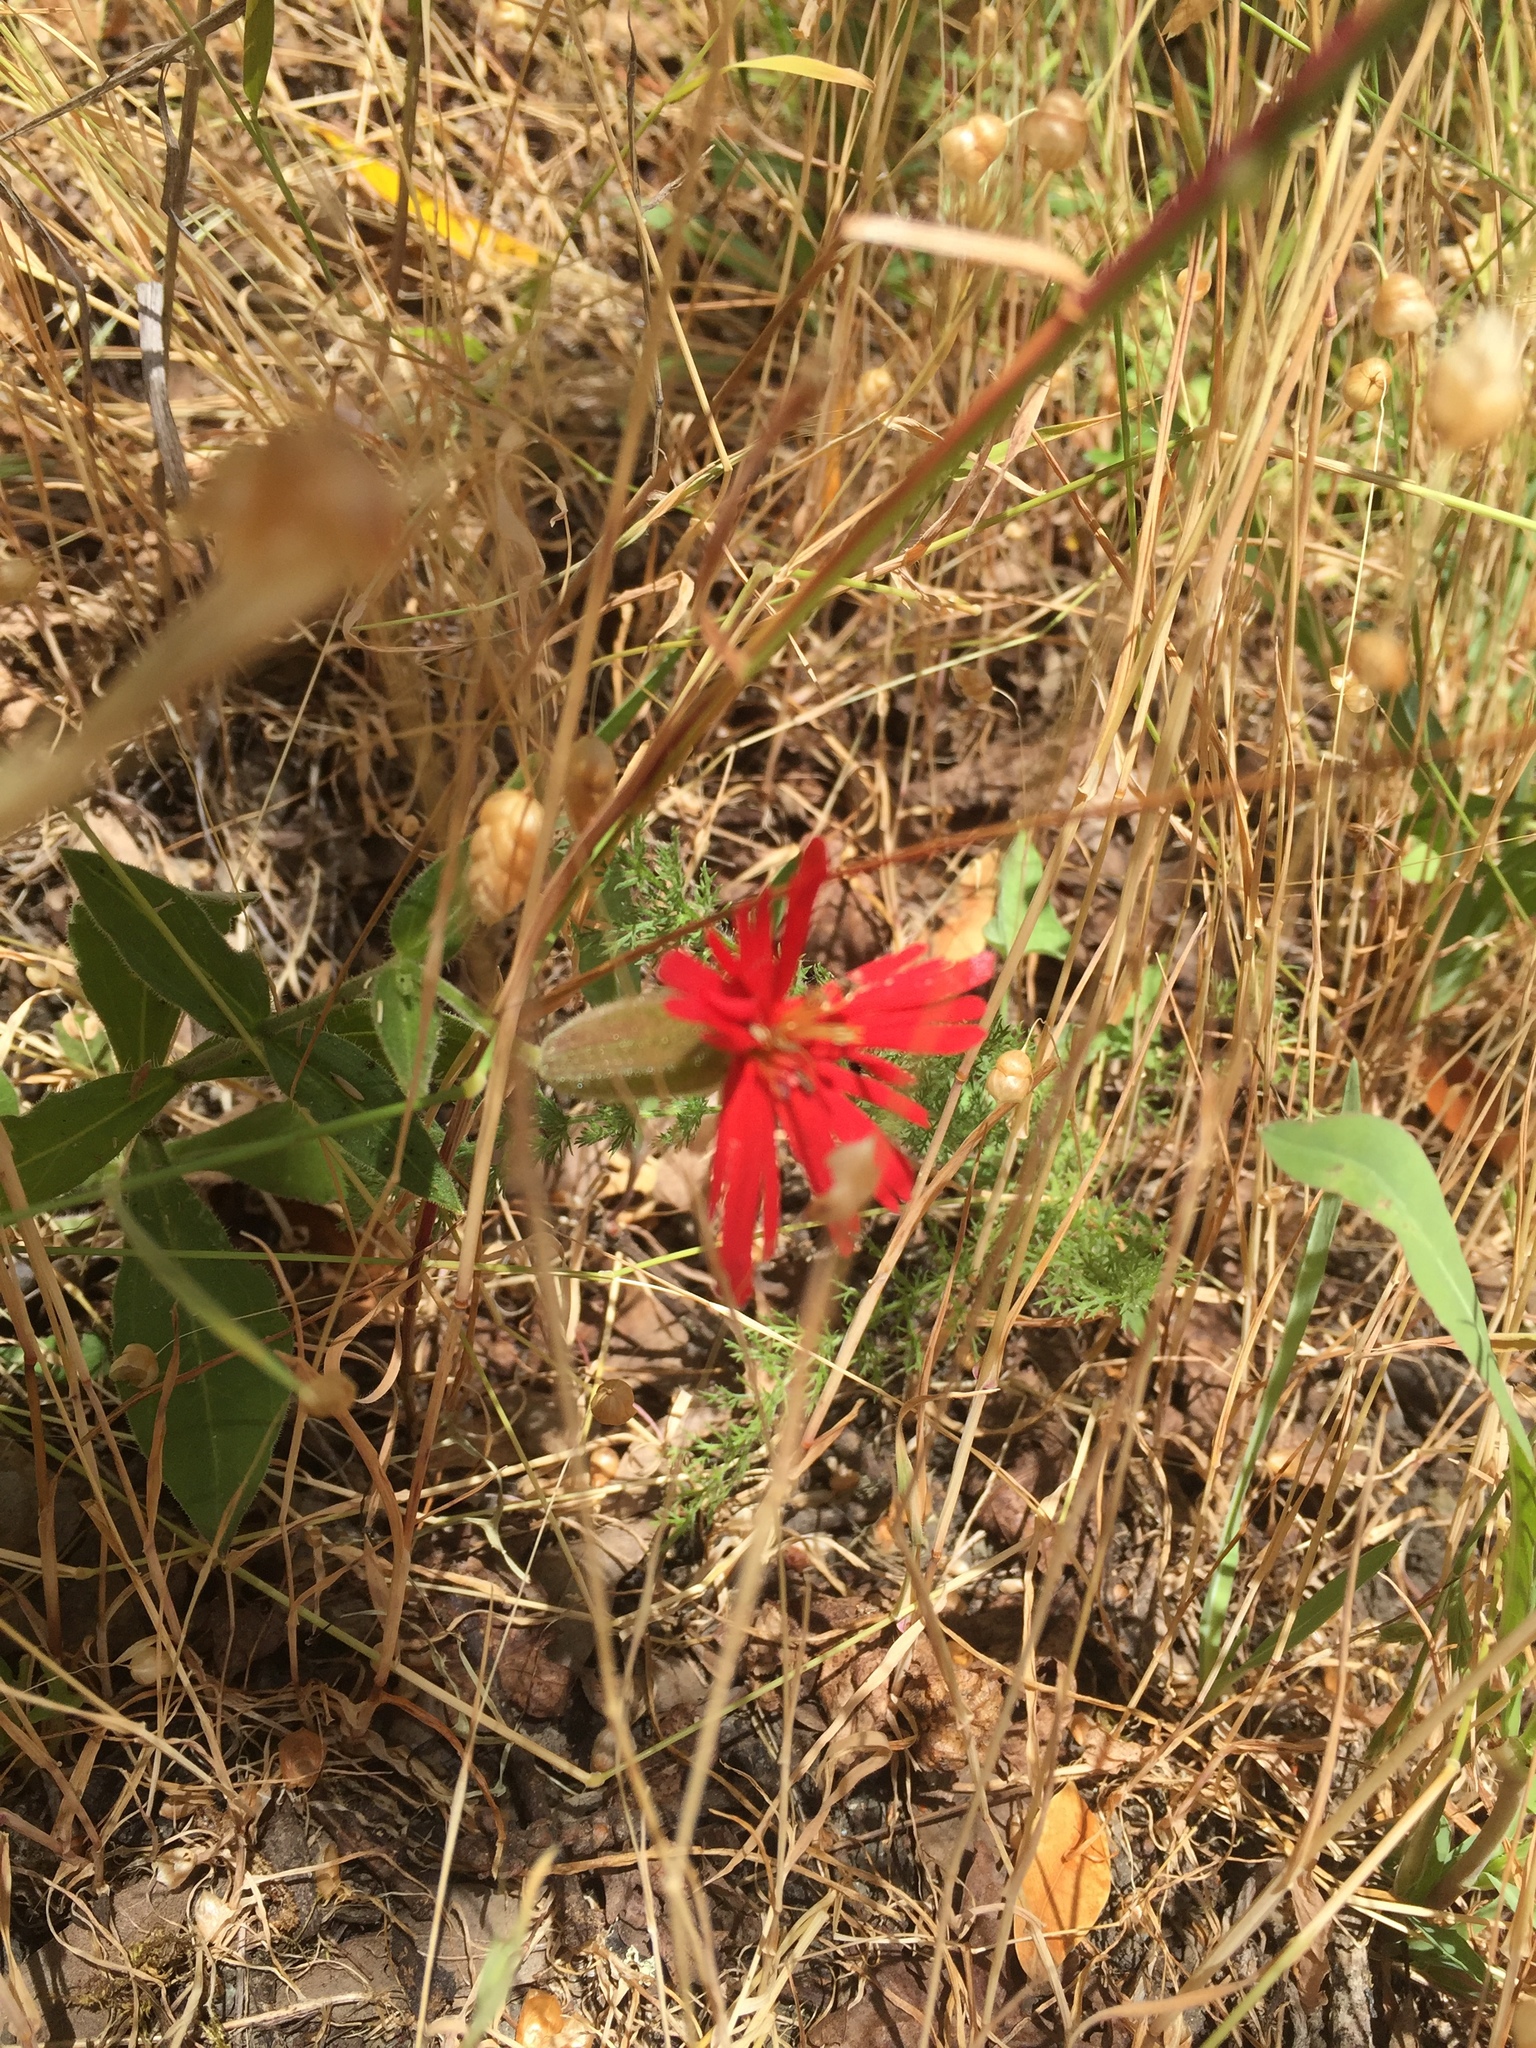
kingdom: Plantae
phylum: Tracheophyta
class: Magnoliopsida
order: Caryophyllales
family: Caryophyllaceae
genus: Silene
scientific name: Silene laciniata
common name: Indian-pink
